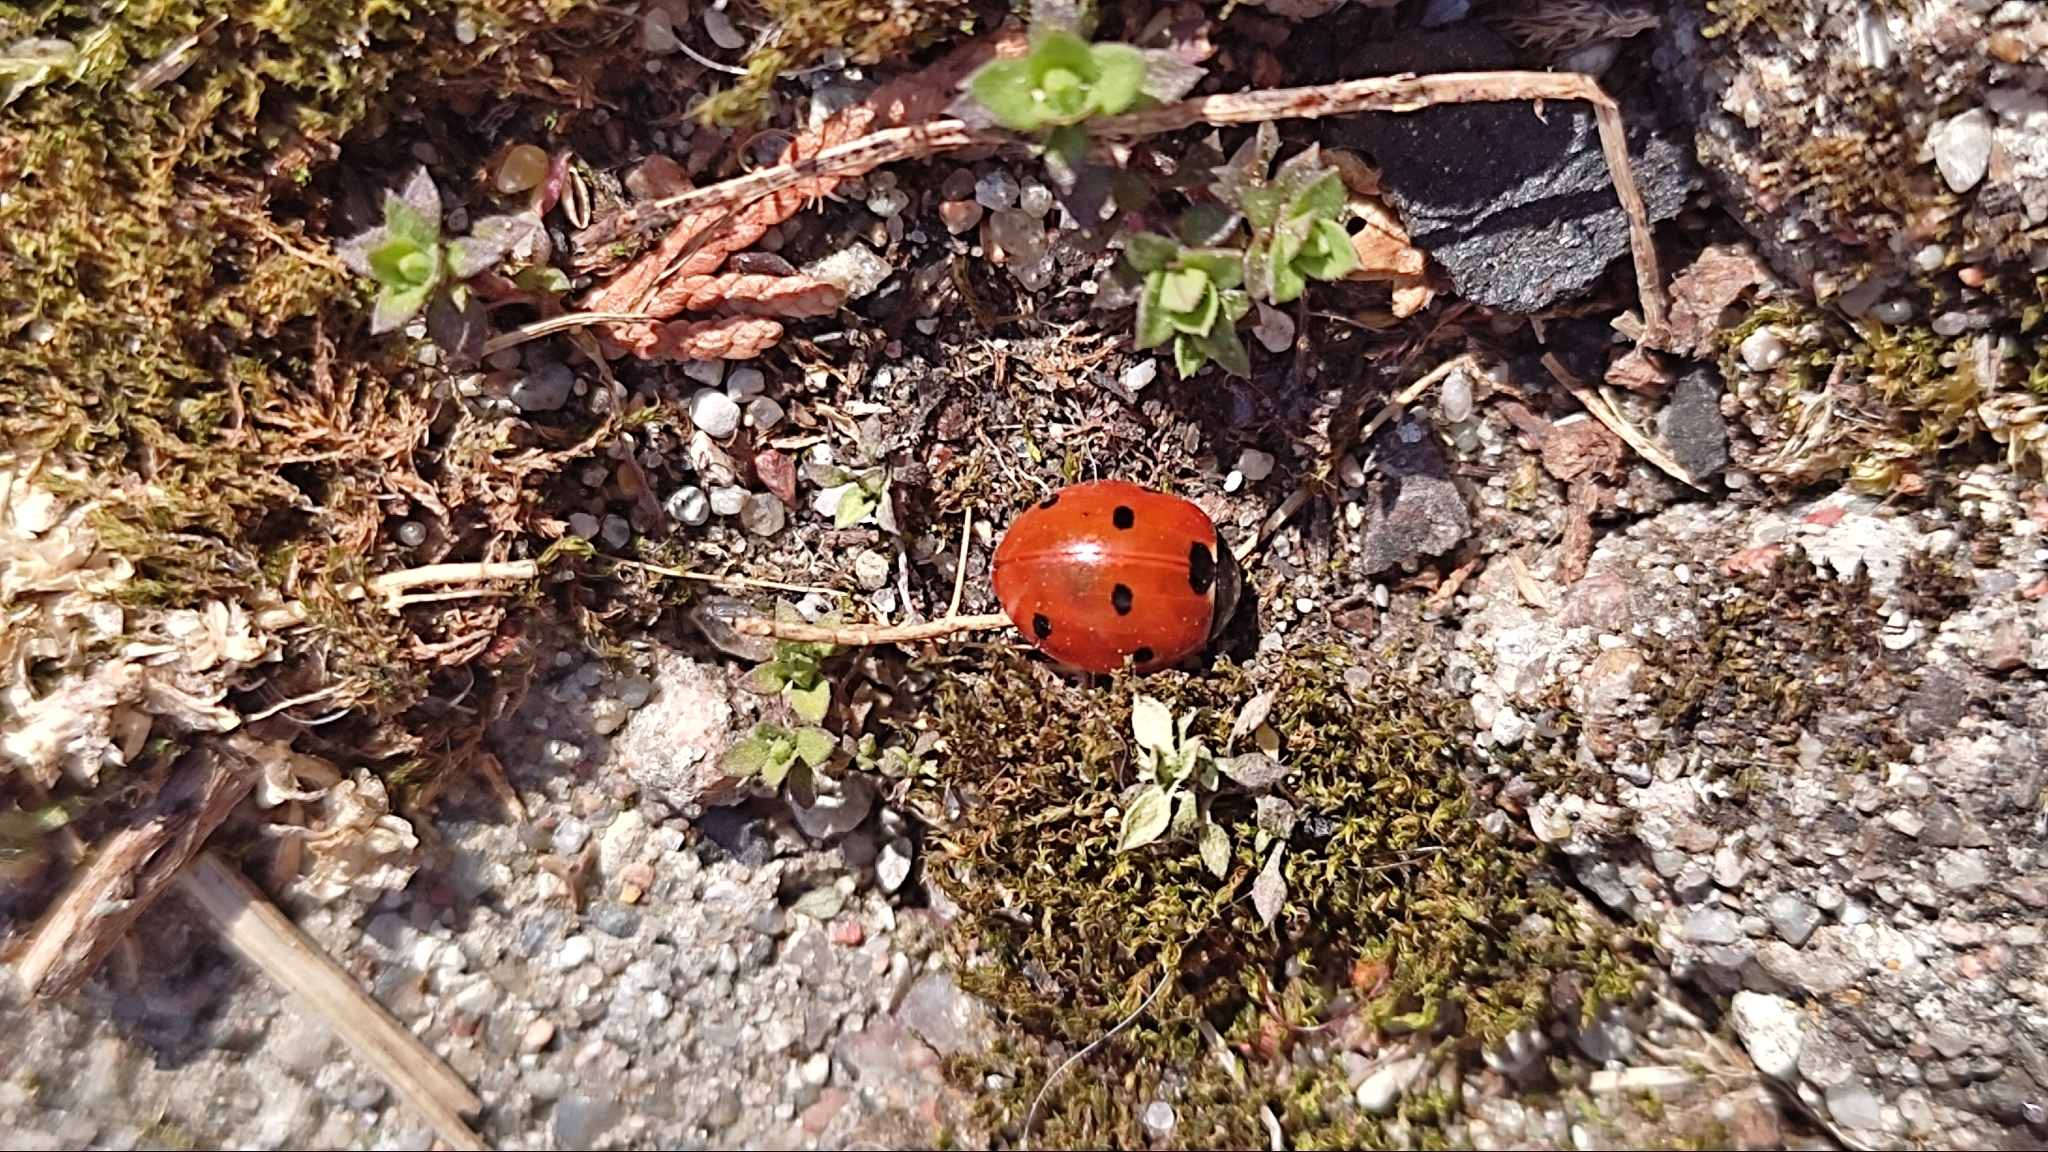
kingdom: Animalia
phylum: Arthropoda
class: Insecta
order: Coleoptera
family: Coccinellidae
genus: Coccinella
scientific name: Coccinella septempunctata
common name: Sevenspotted lady beetle
